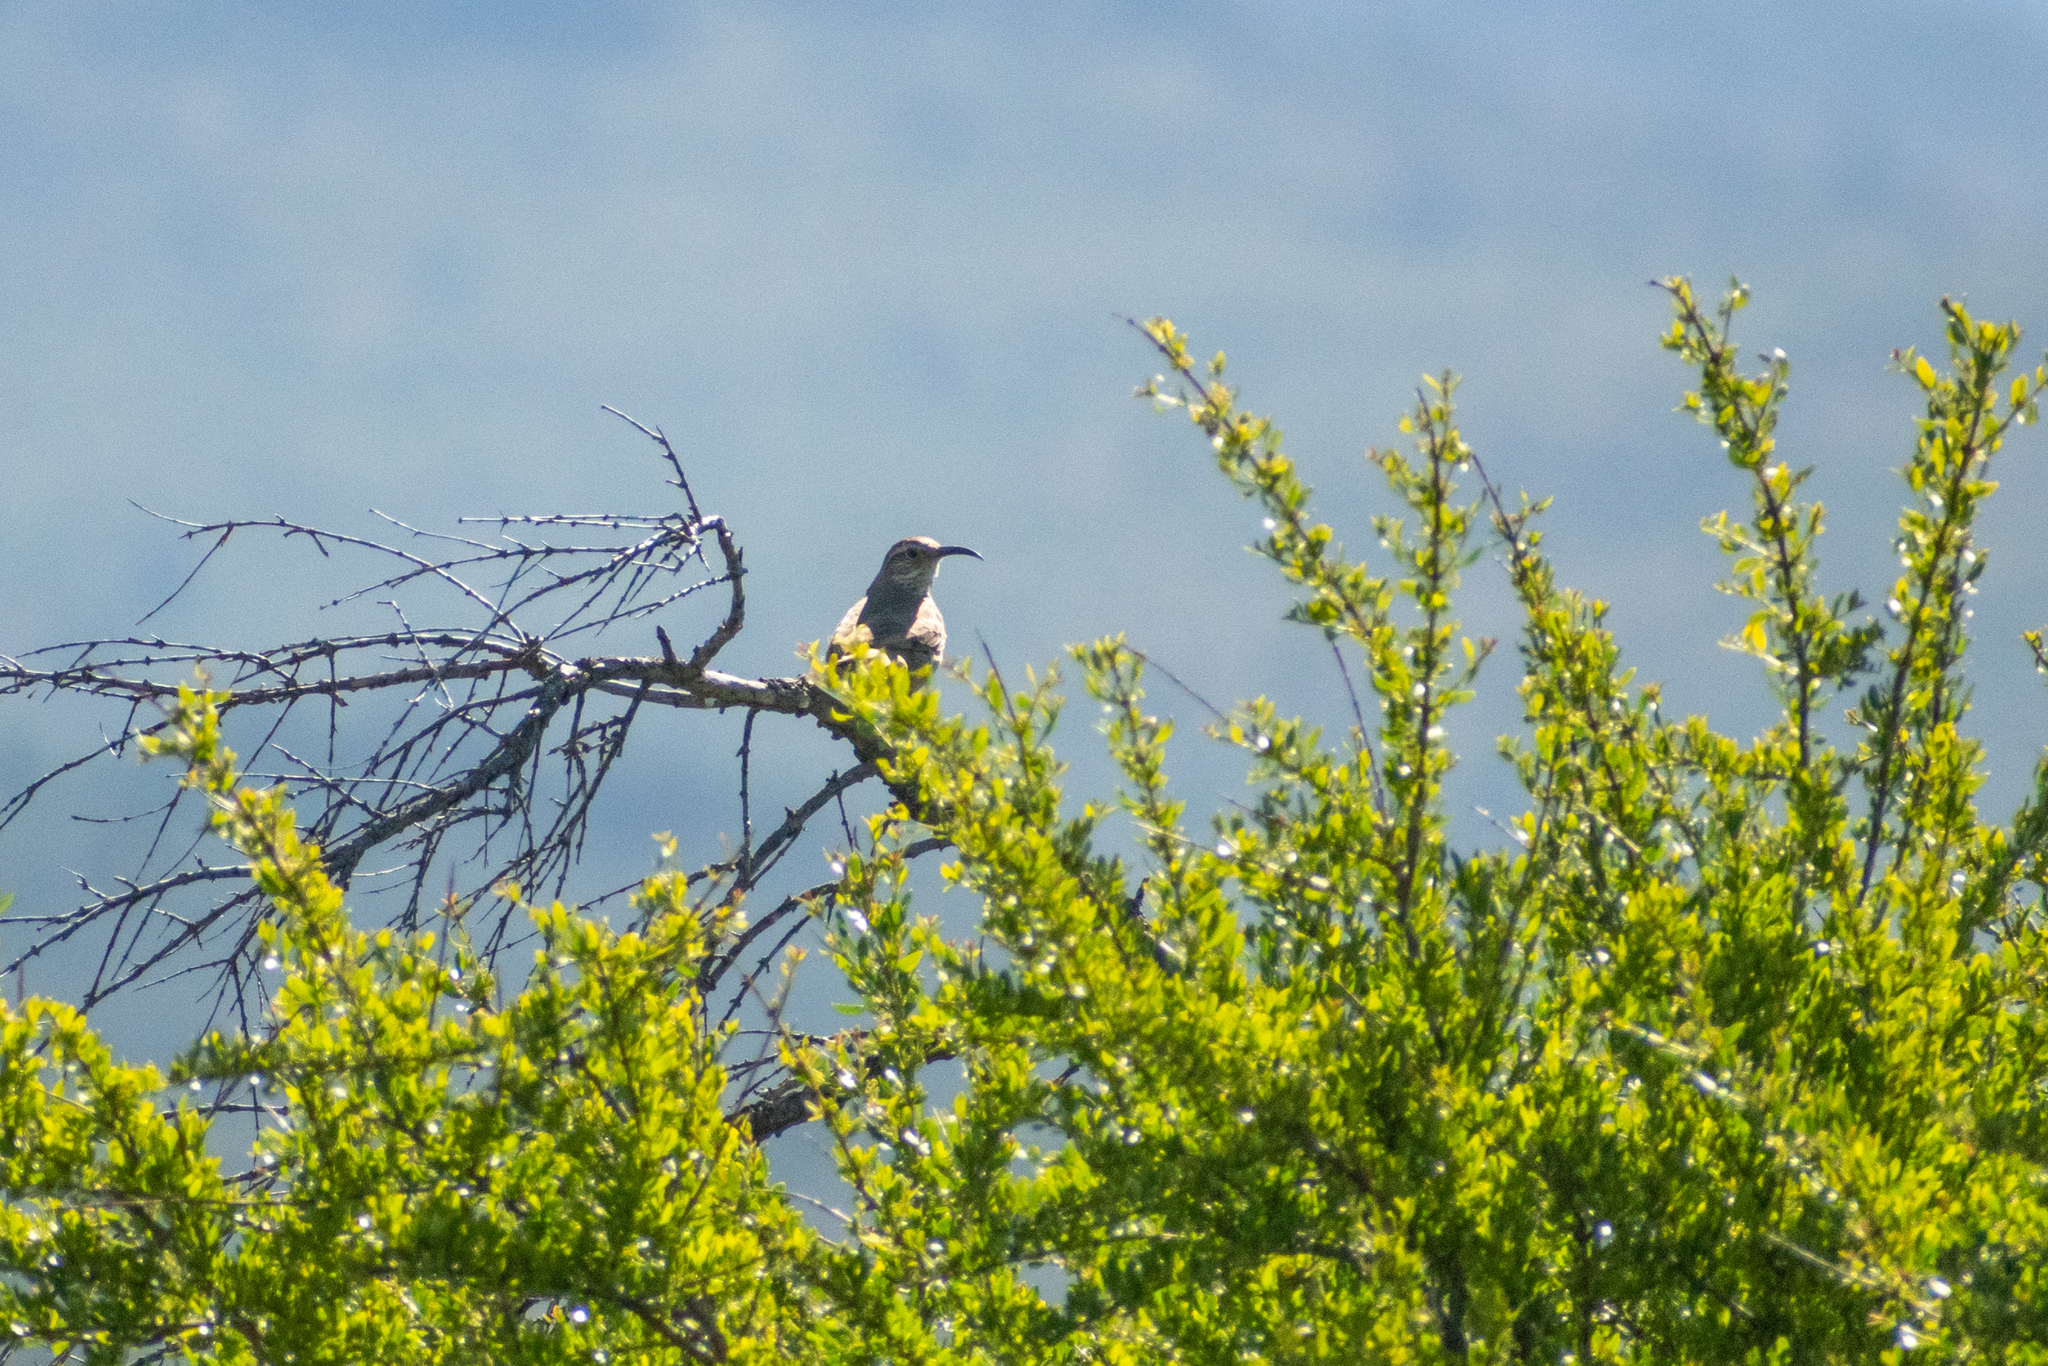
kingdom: Animalia
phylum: Chordata
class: Aves
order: Passeriformes
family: Furnariidae
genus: Upucerthia
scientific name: Upucerthia dumetaria
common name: Scale-throated earthcreeper
